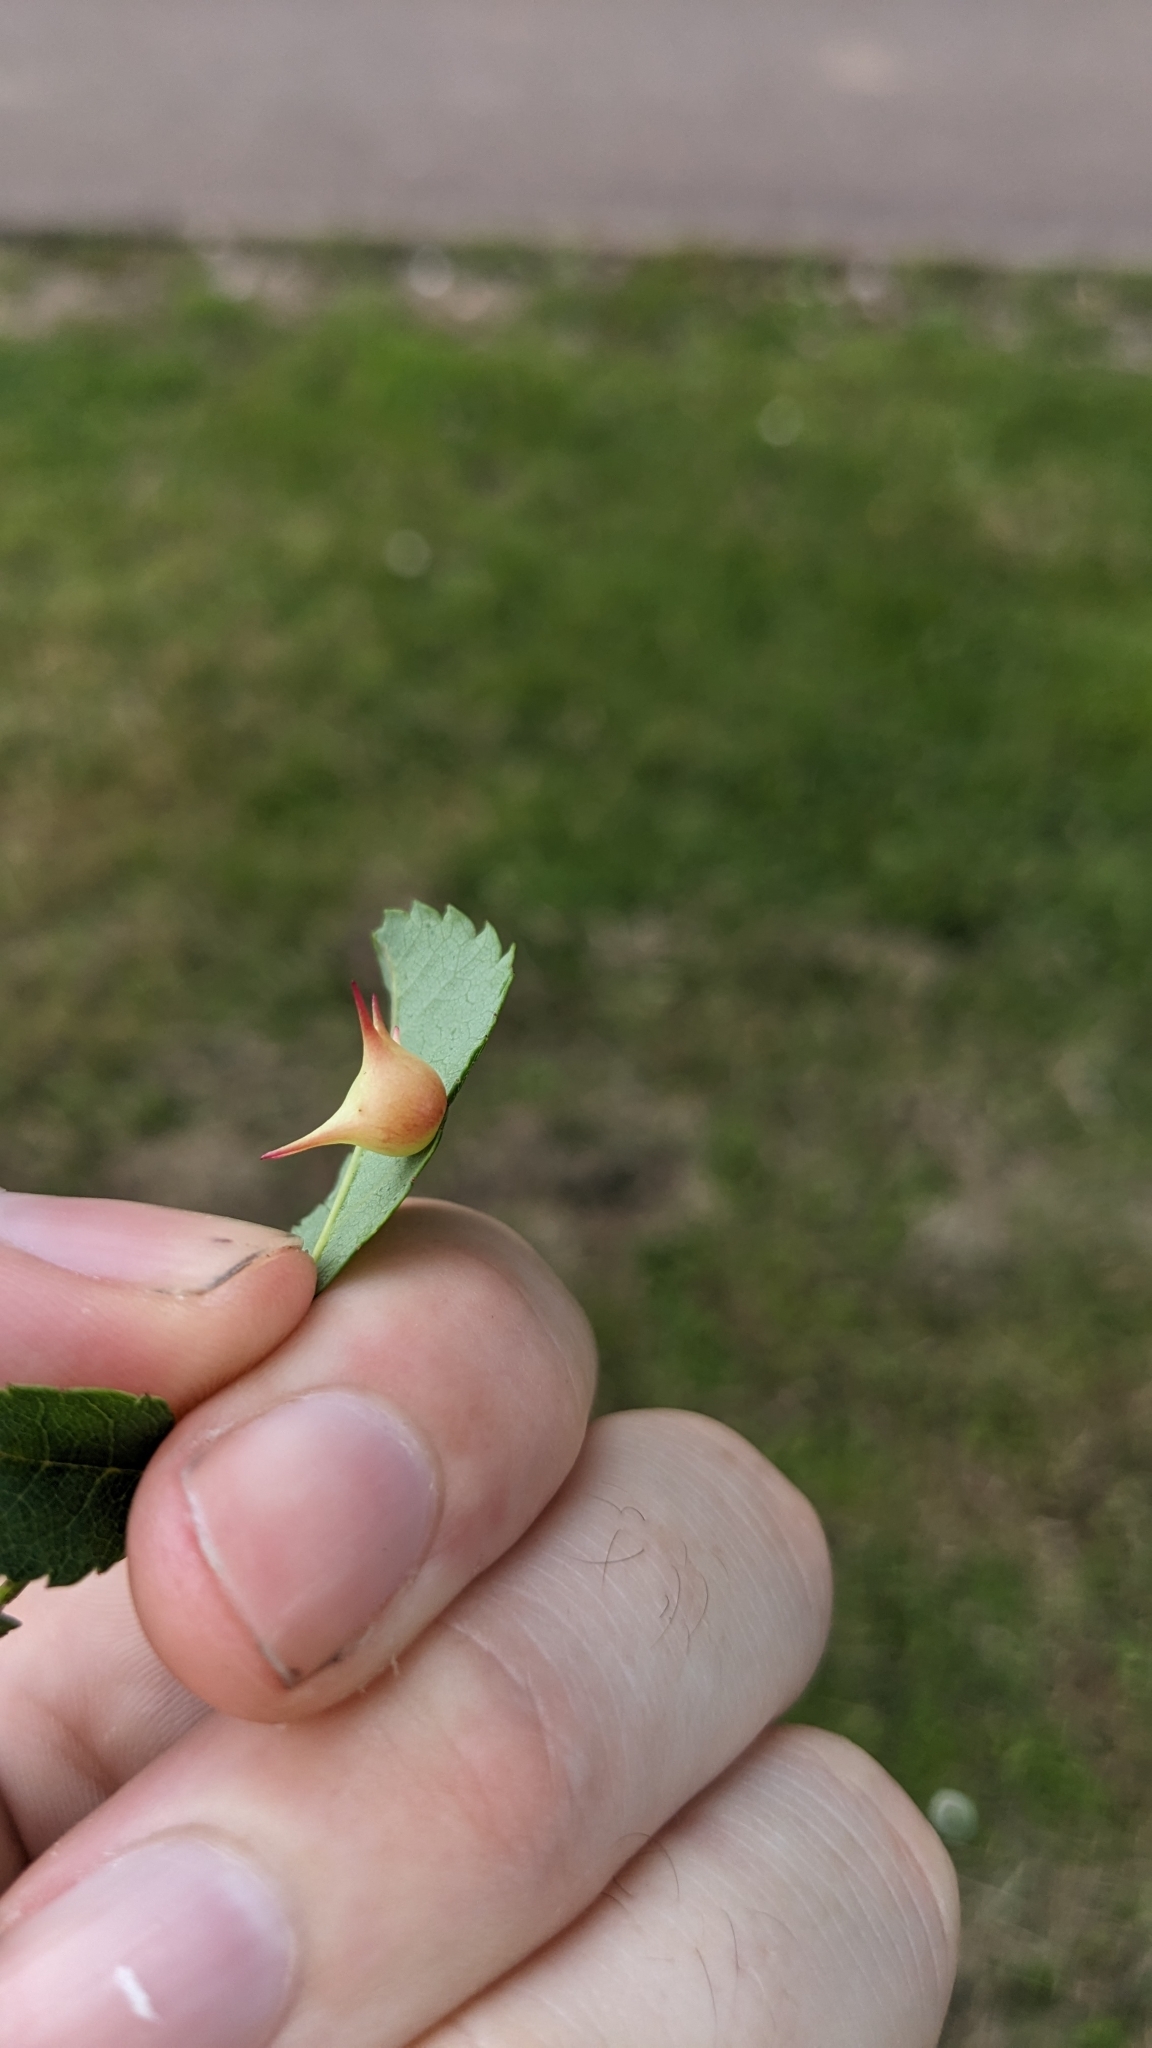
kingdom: Animalia
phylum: Arthropoda
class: Insecta
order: Hymenoptera
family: Cynipidae
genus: Diplolepis
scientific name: Diplolepis nervosa
